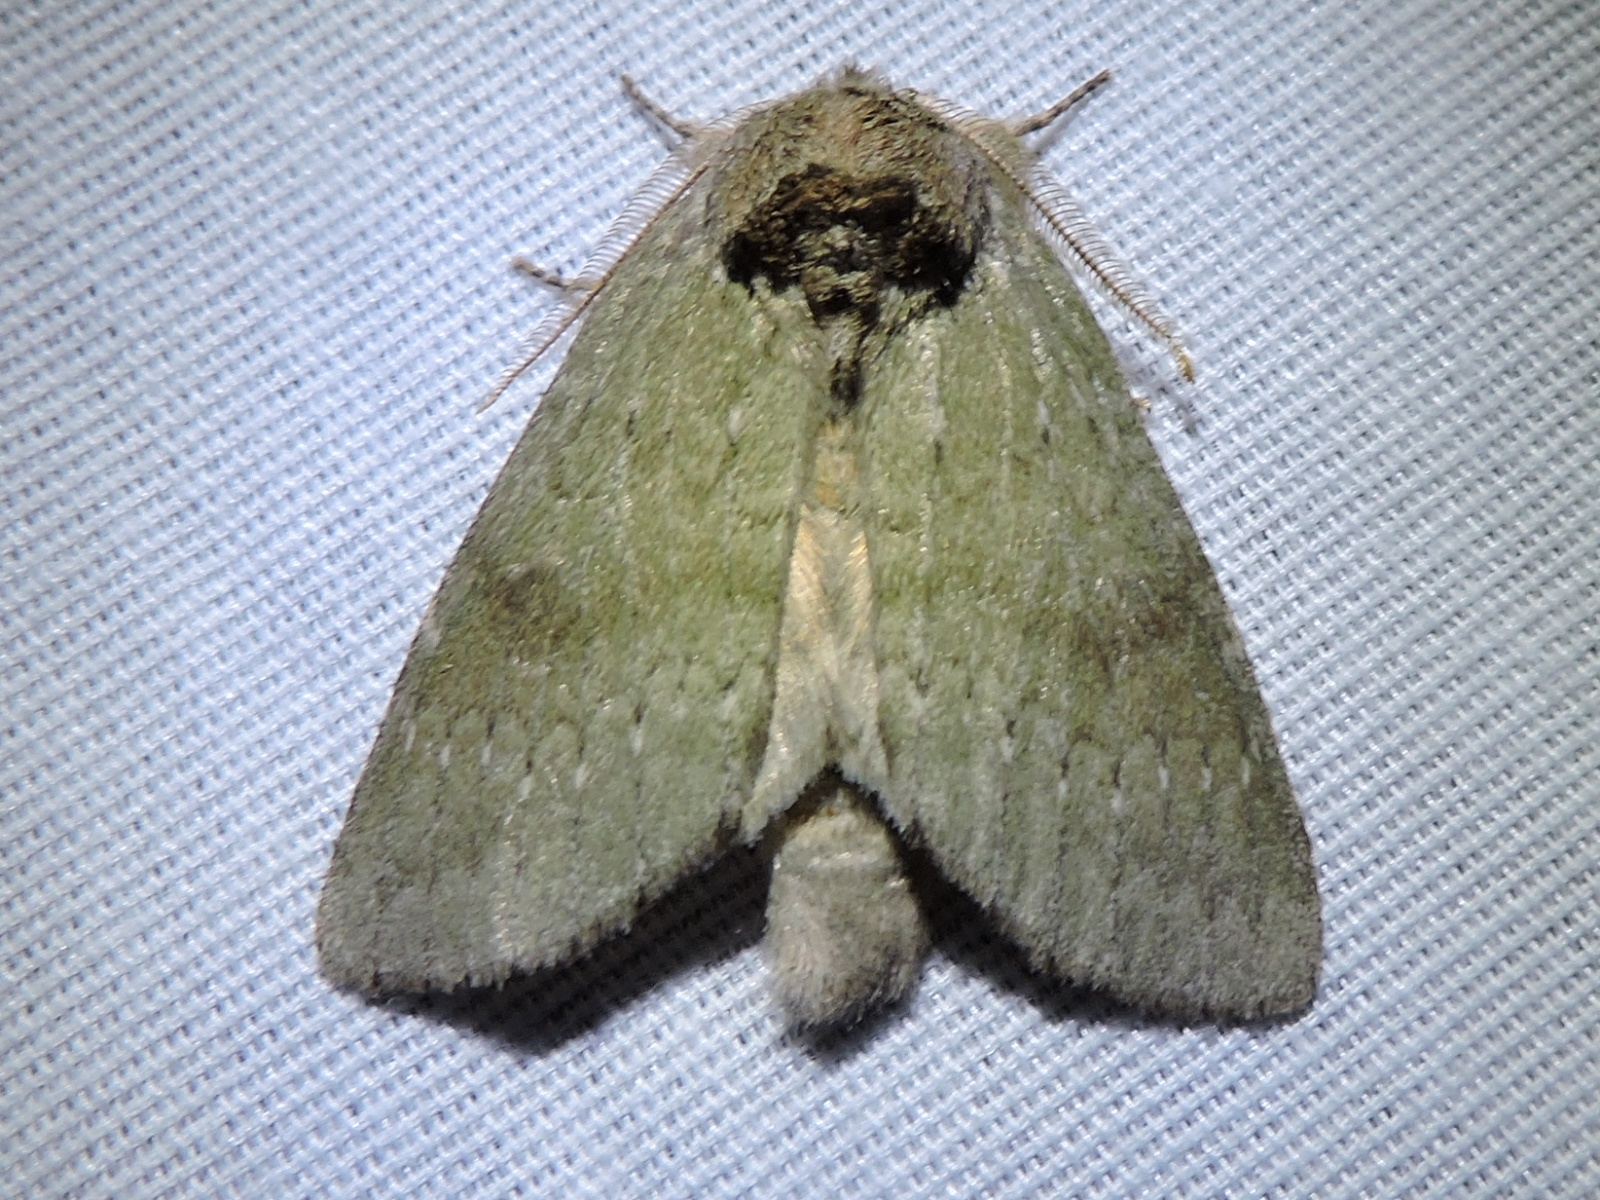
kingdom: Animalia
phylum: Arthropoda
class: Insecta
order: Lepidoptera
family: Notodontidae
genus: Misogada
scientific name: Misogada unicolor
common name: Drab prominent
